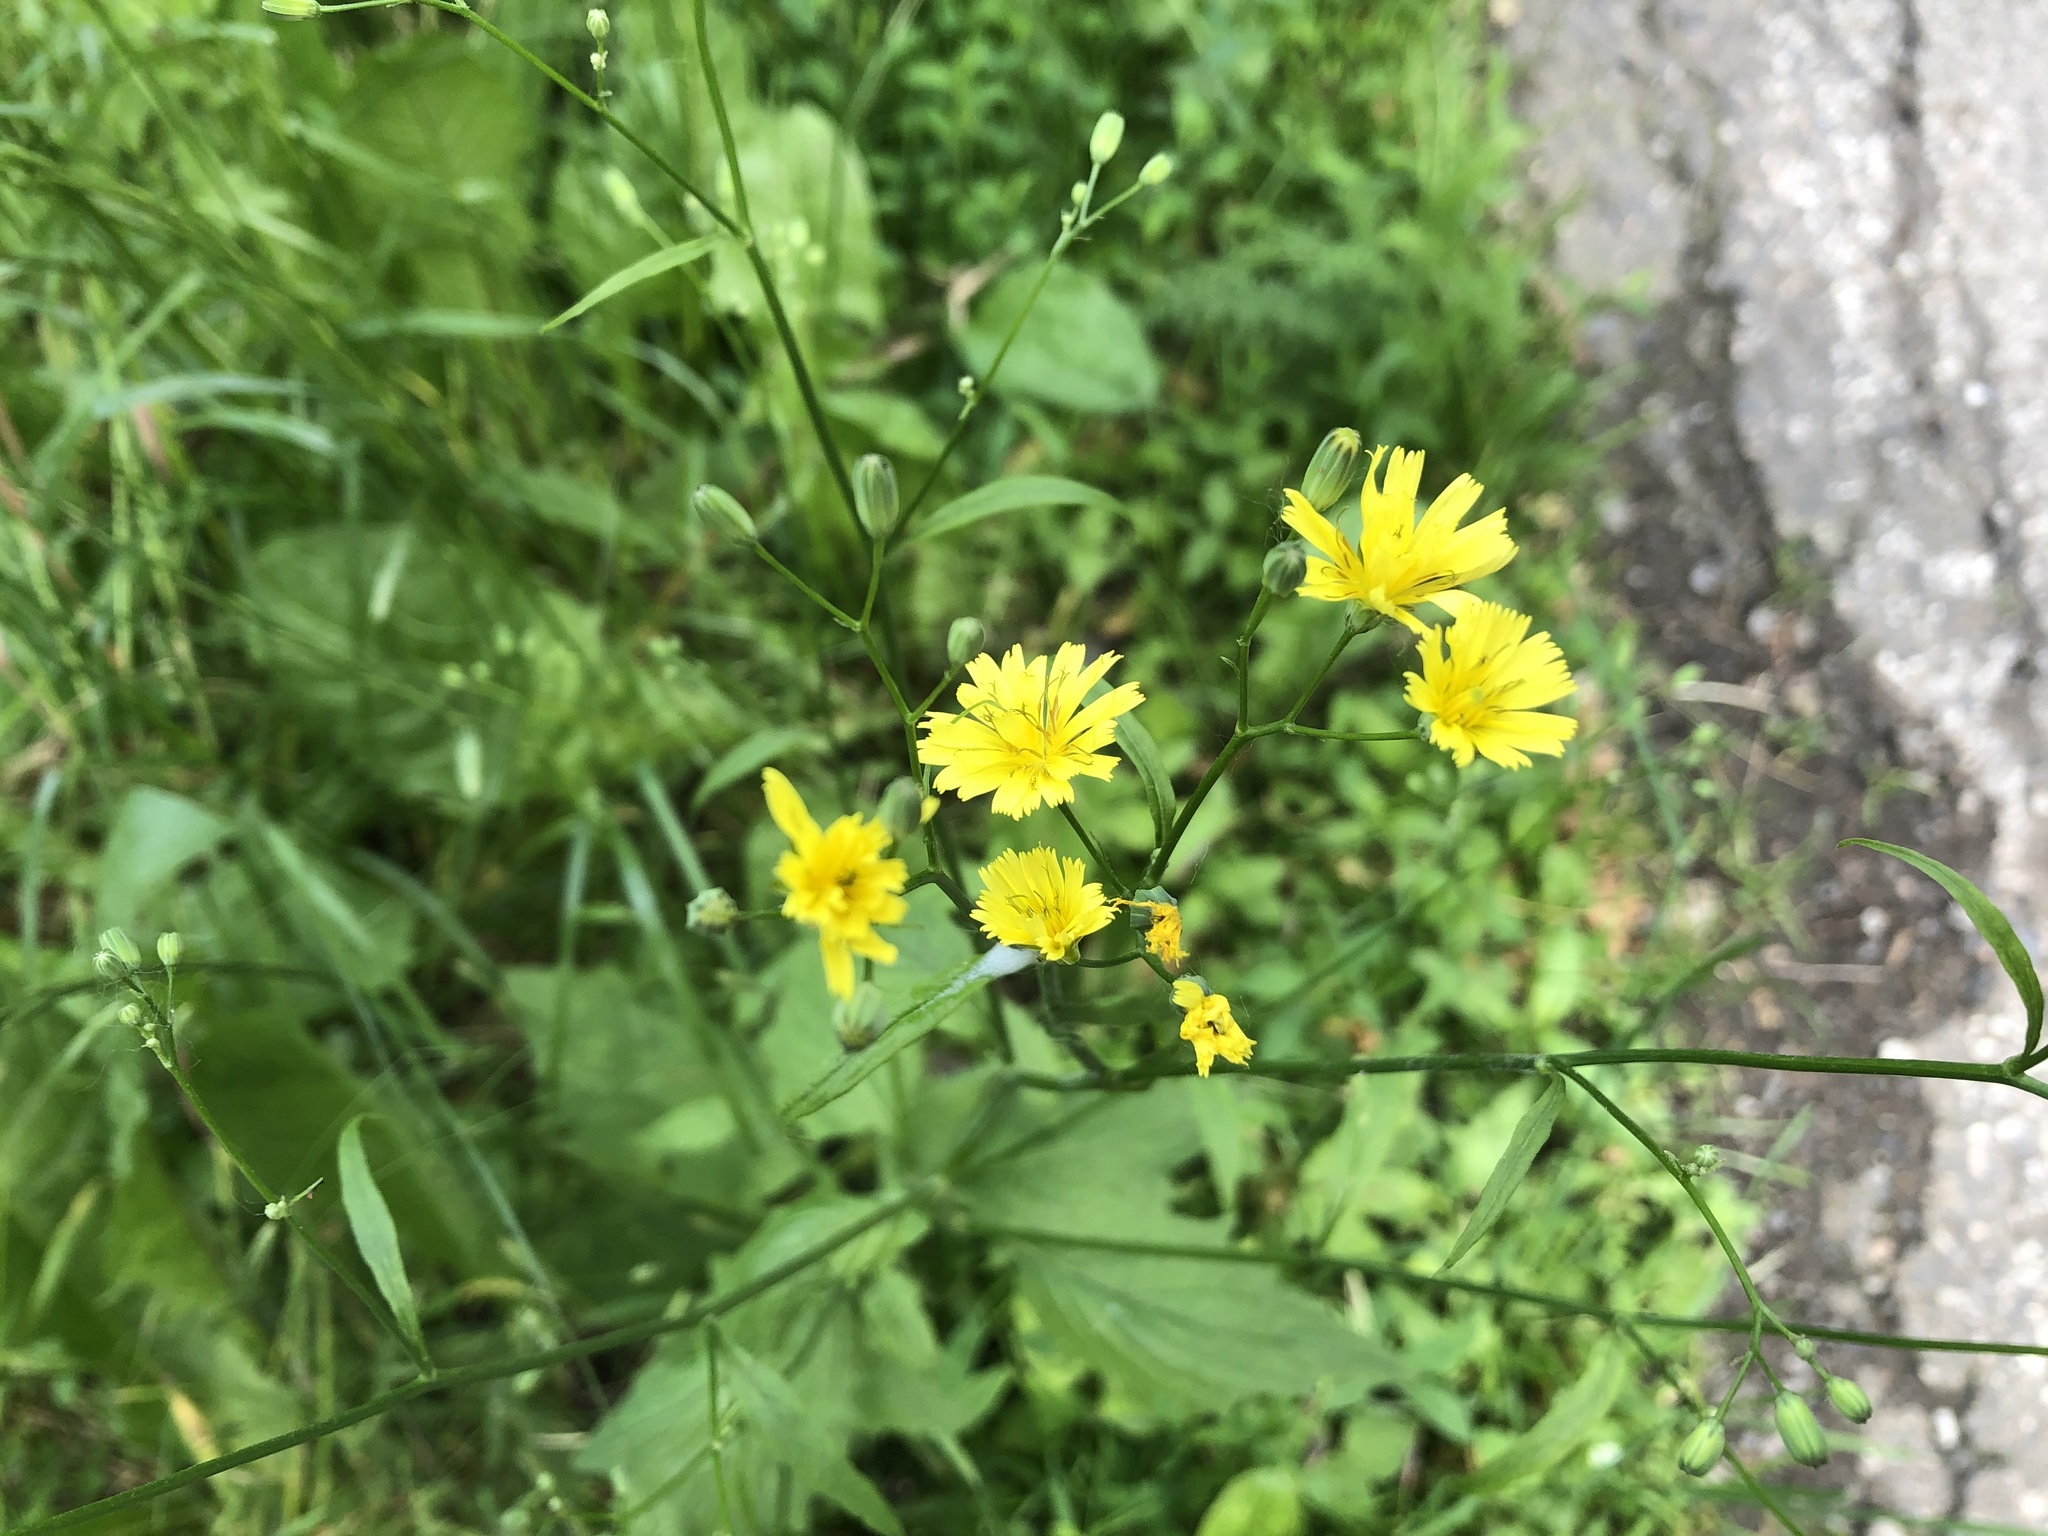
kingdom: Plantae
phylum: Tracheophyta
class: Magnoliopsida
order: Asterales
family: Asteraceae
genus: Lapsana
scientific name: Lapsana communis
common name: Nipplewort
